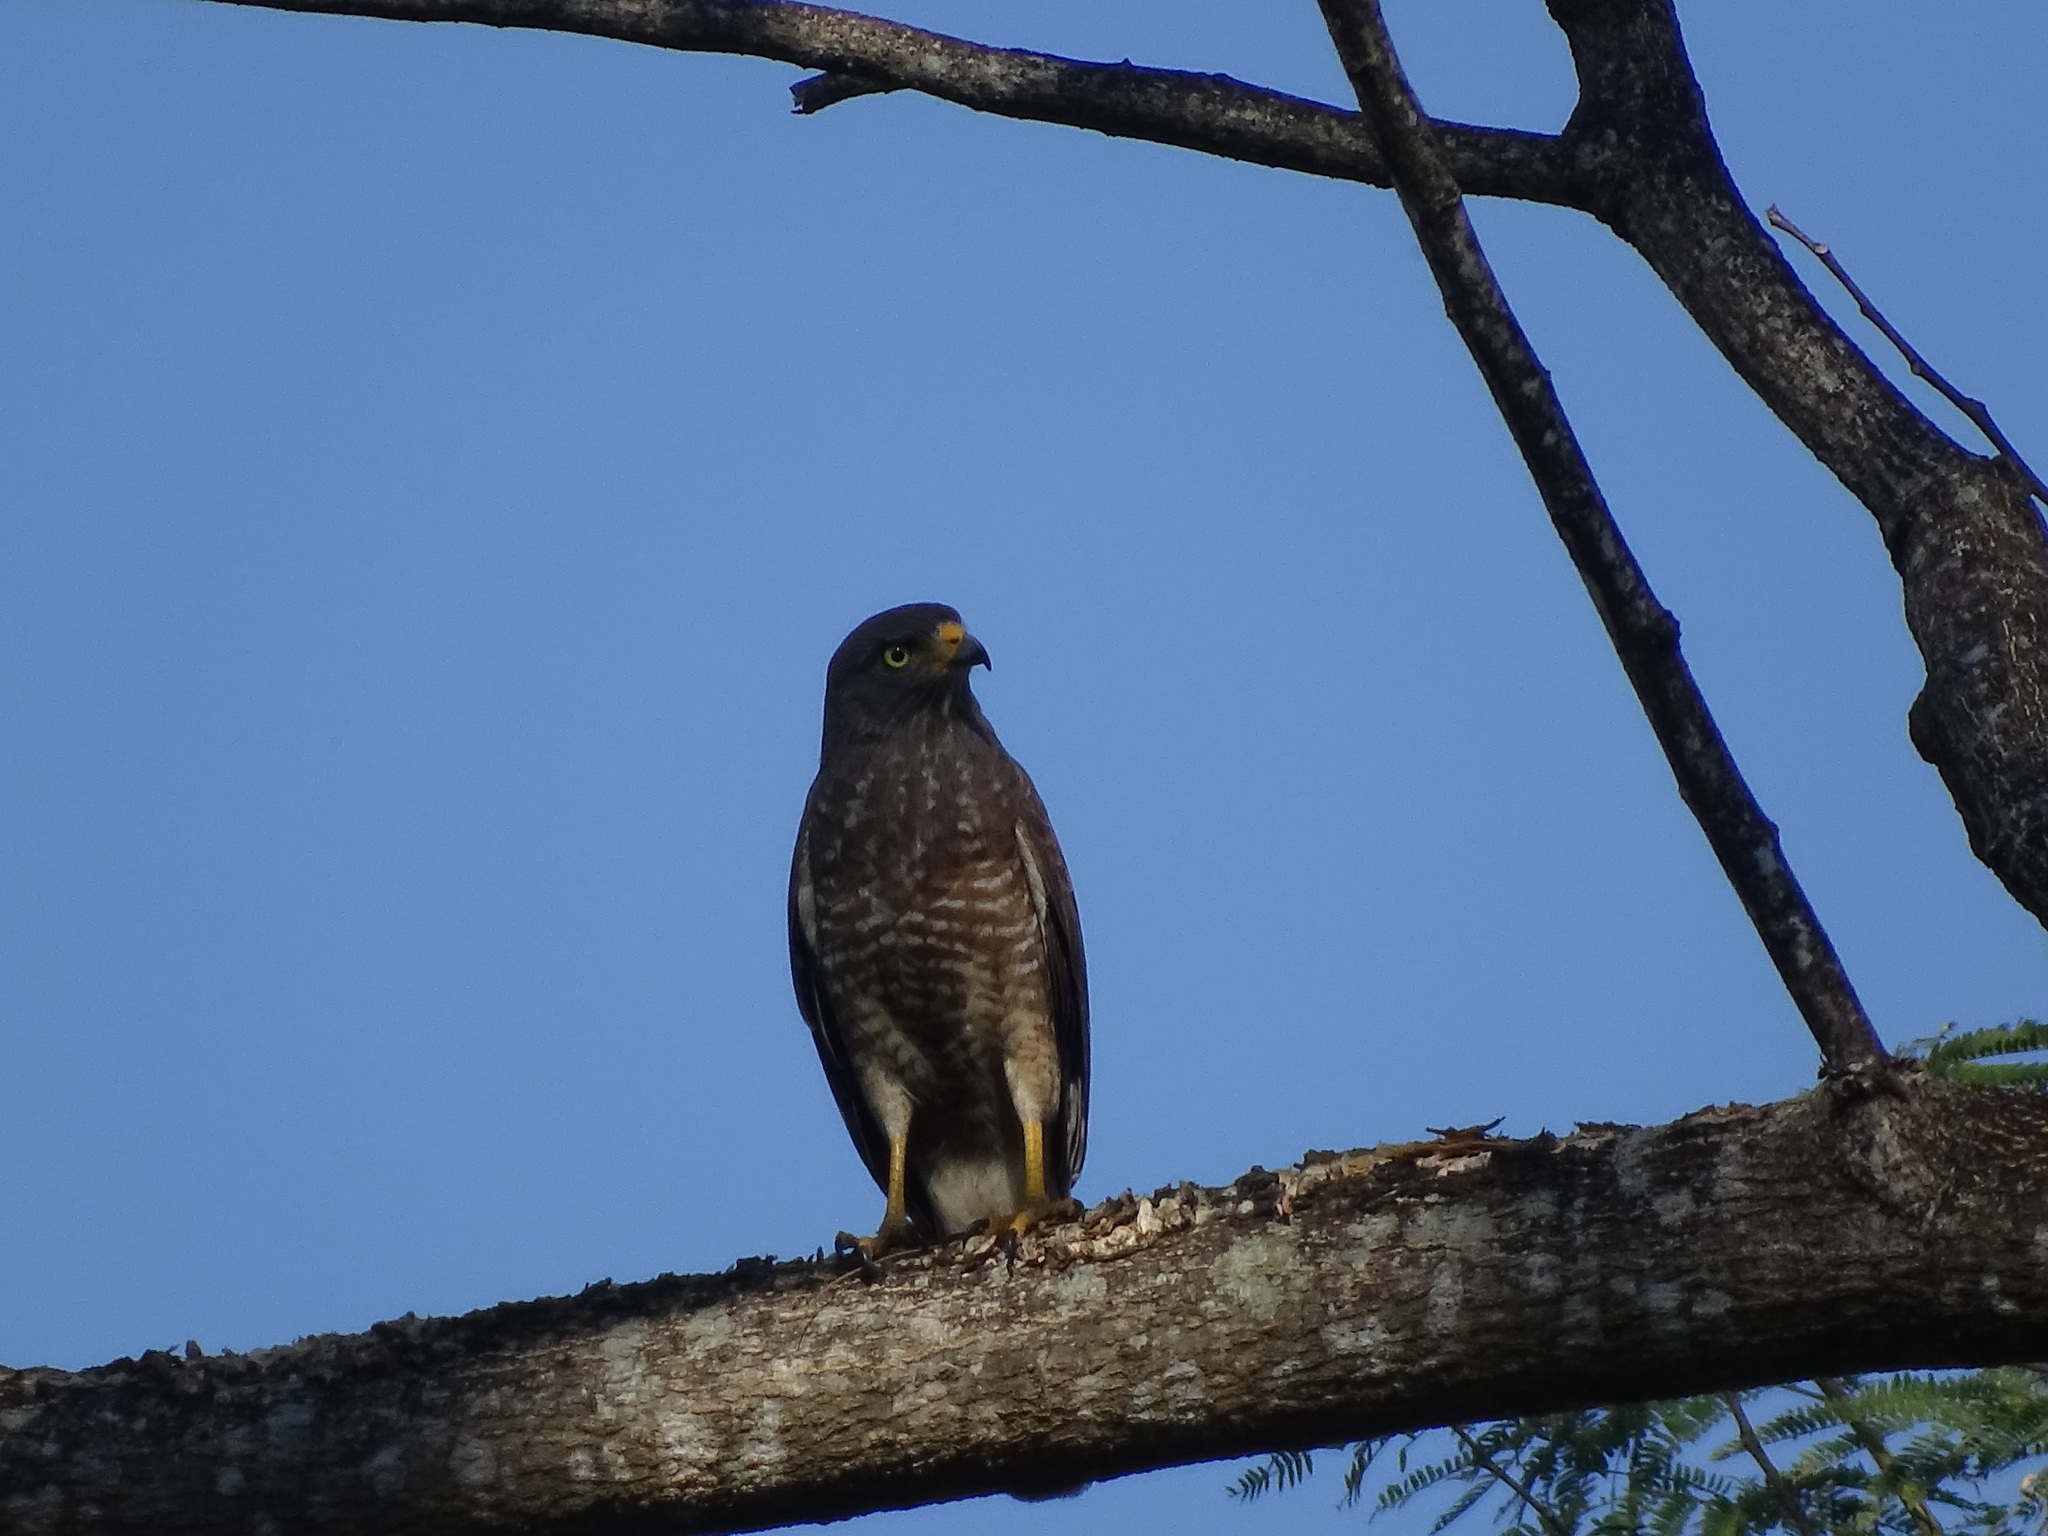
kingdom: Animalia
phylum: Chordata
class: Aves
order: Accipitriformes
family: Accipitridae
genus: Rupornis
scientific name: Rupornis magnirostris
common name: Roadside hawk
